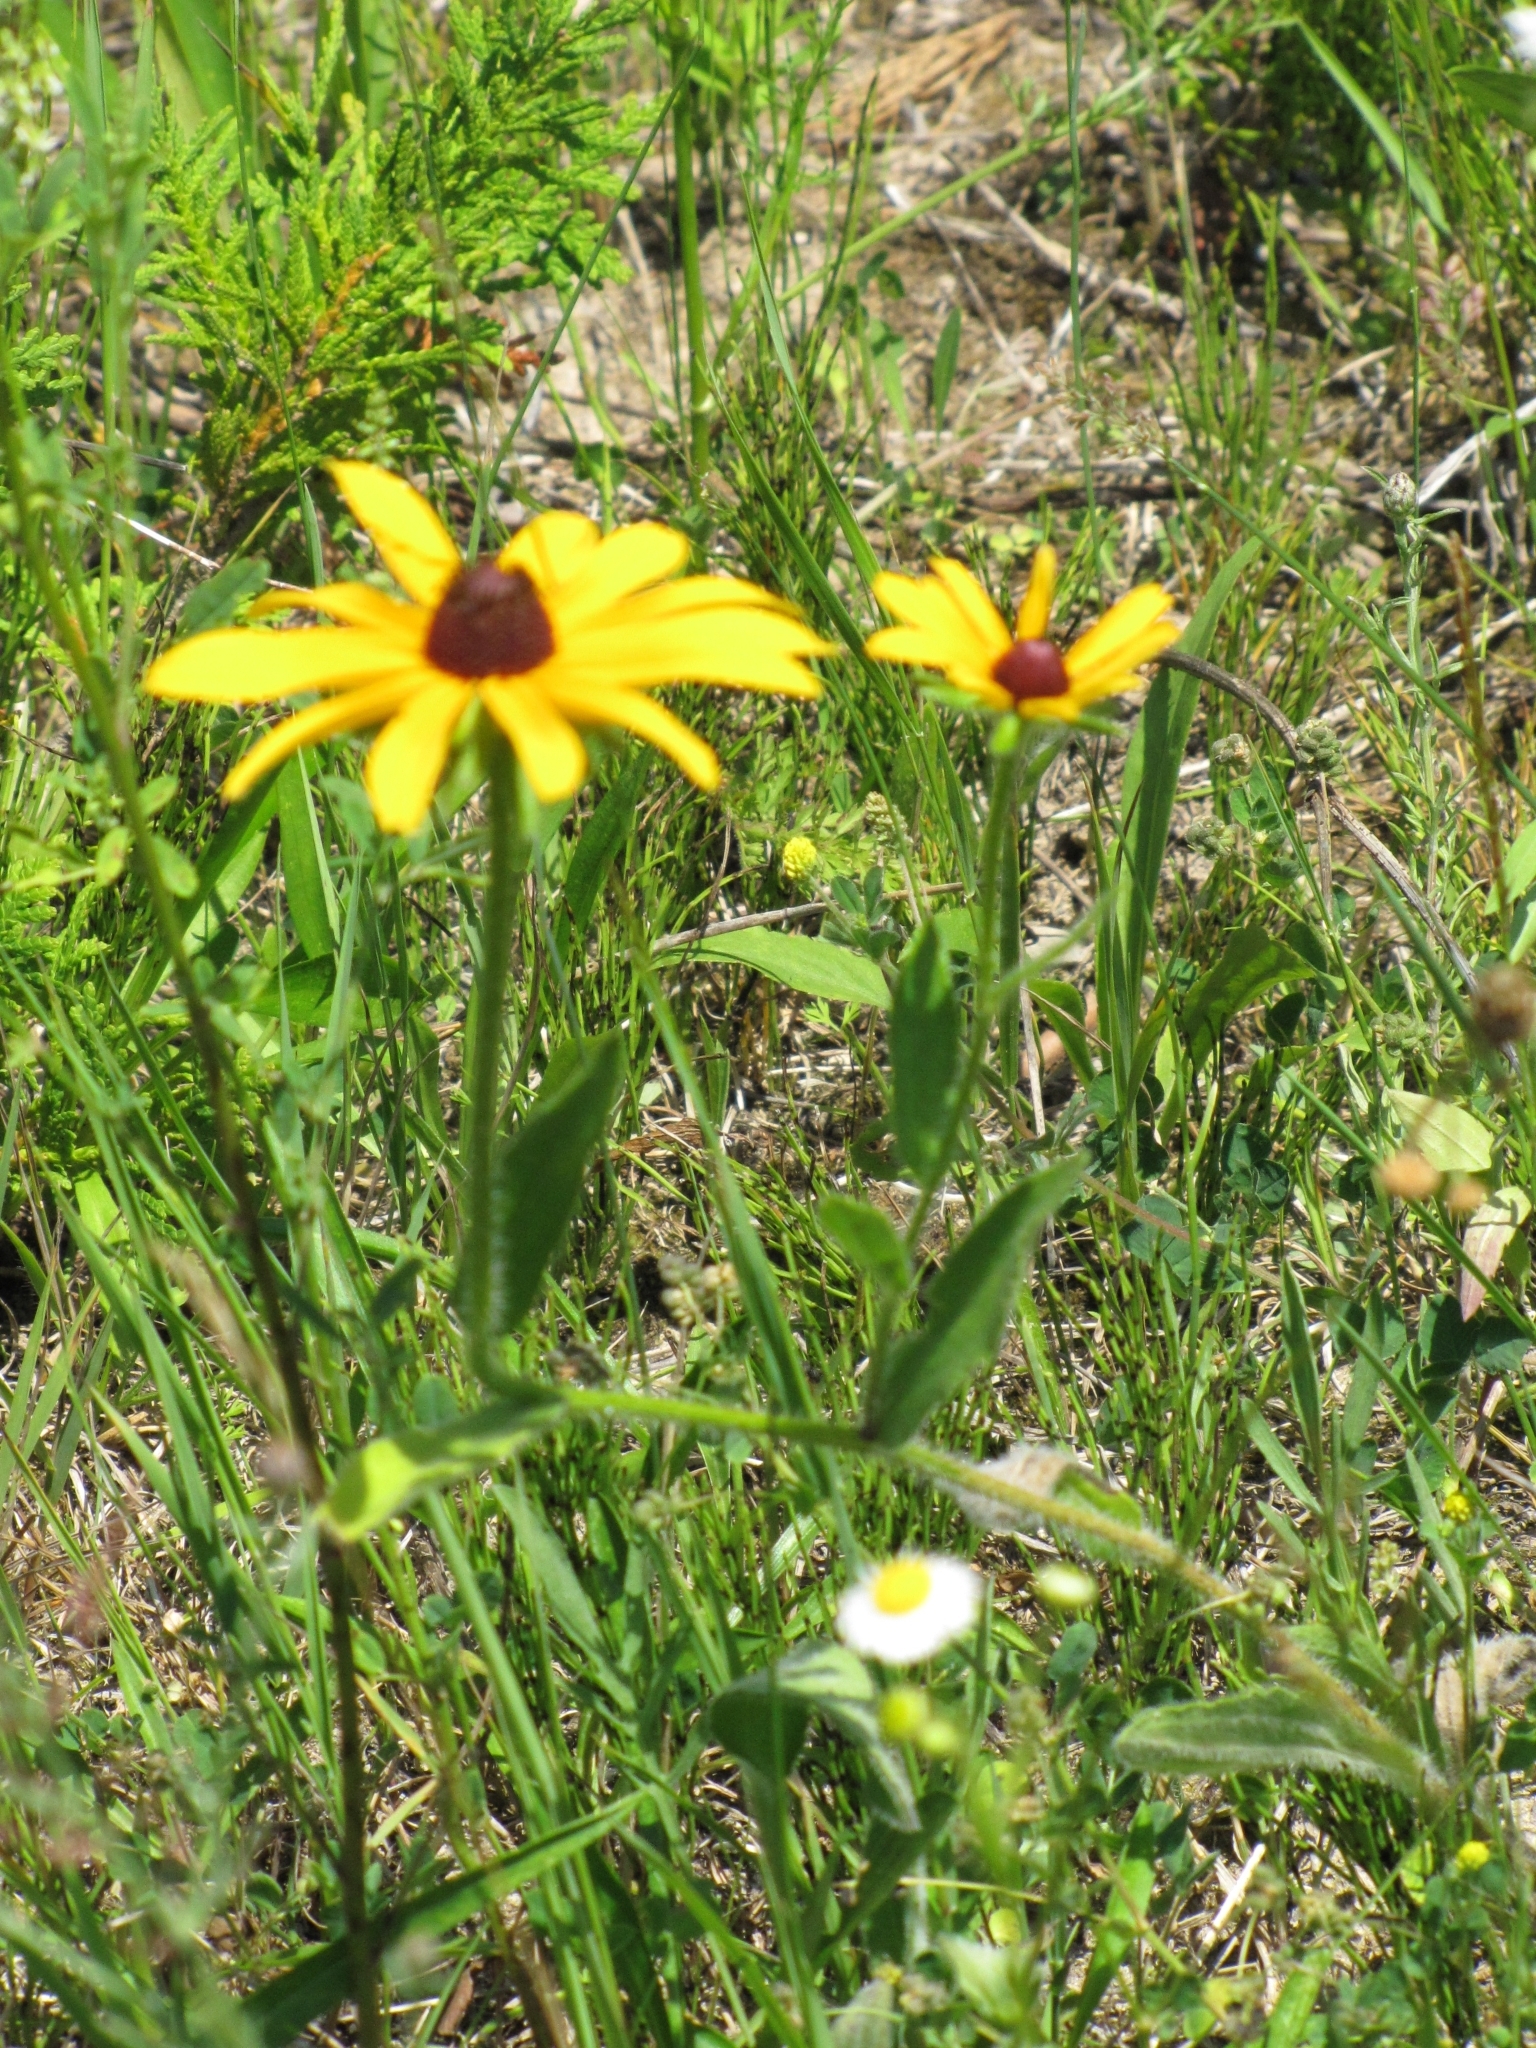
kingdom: Plantae
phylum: Tracheophyta
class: Magnoliopsida
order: Asterales
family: Asteraceae
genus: Rudbeckia
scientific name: Rudbeckia hirta
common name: Black-eyed-susan
